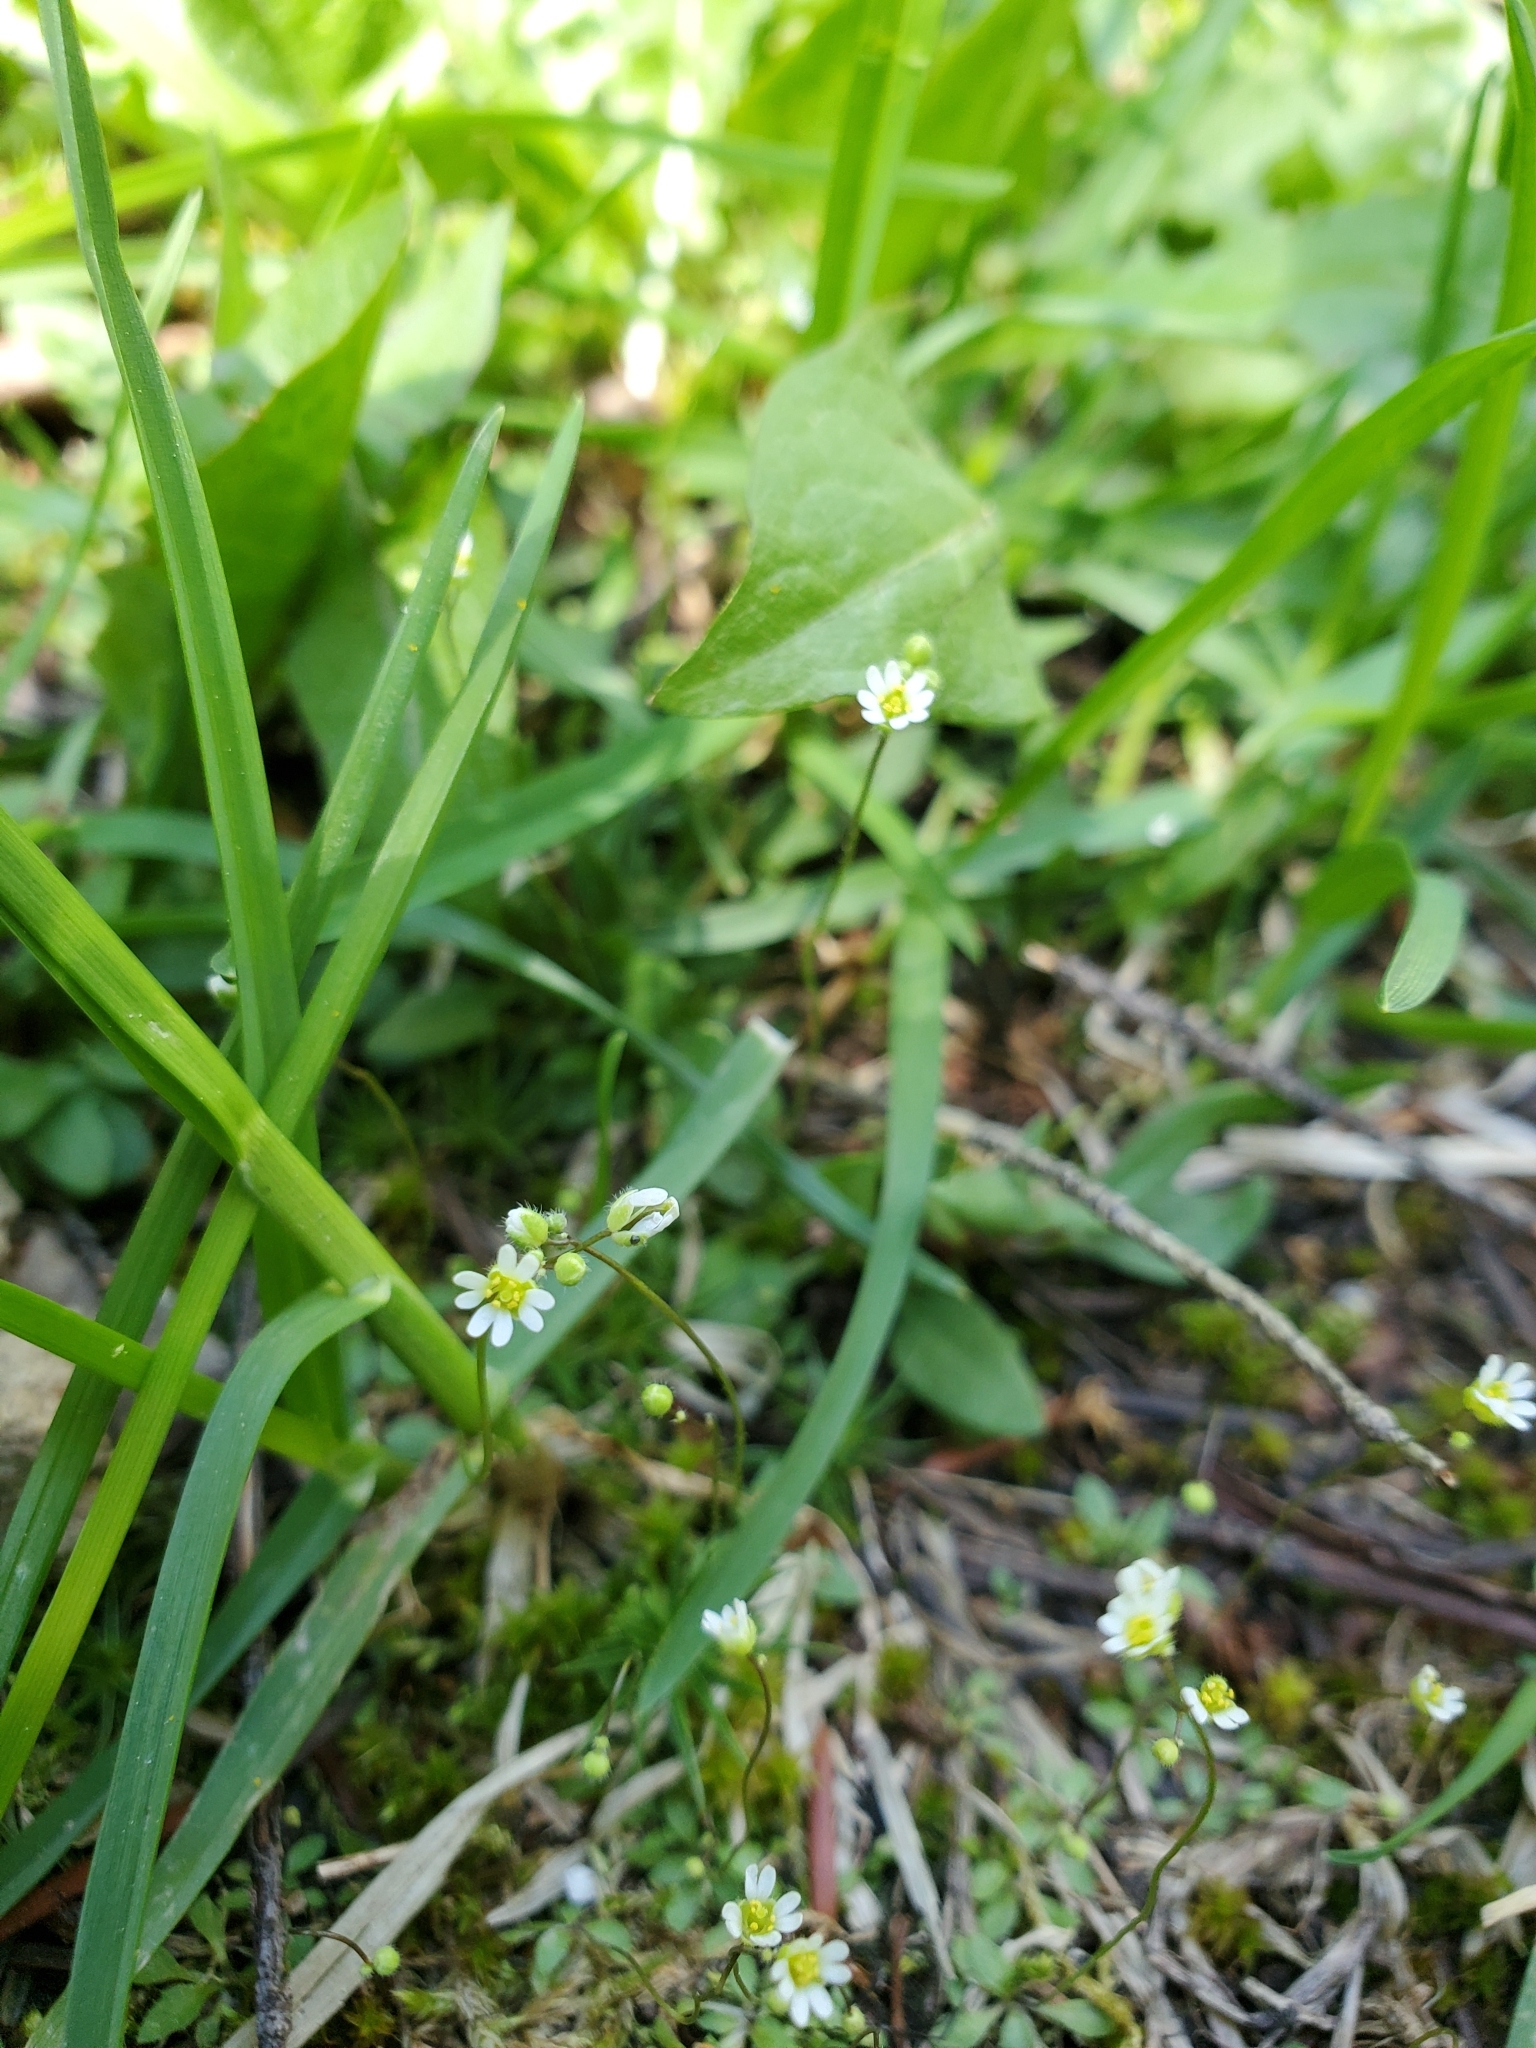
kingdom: Plantae
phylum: Tracheophyta
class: Magnoliopsida
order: Brassicales
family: Brassicaceae
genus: Draba
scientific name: Draba verna
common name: Spring draba
